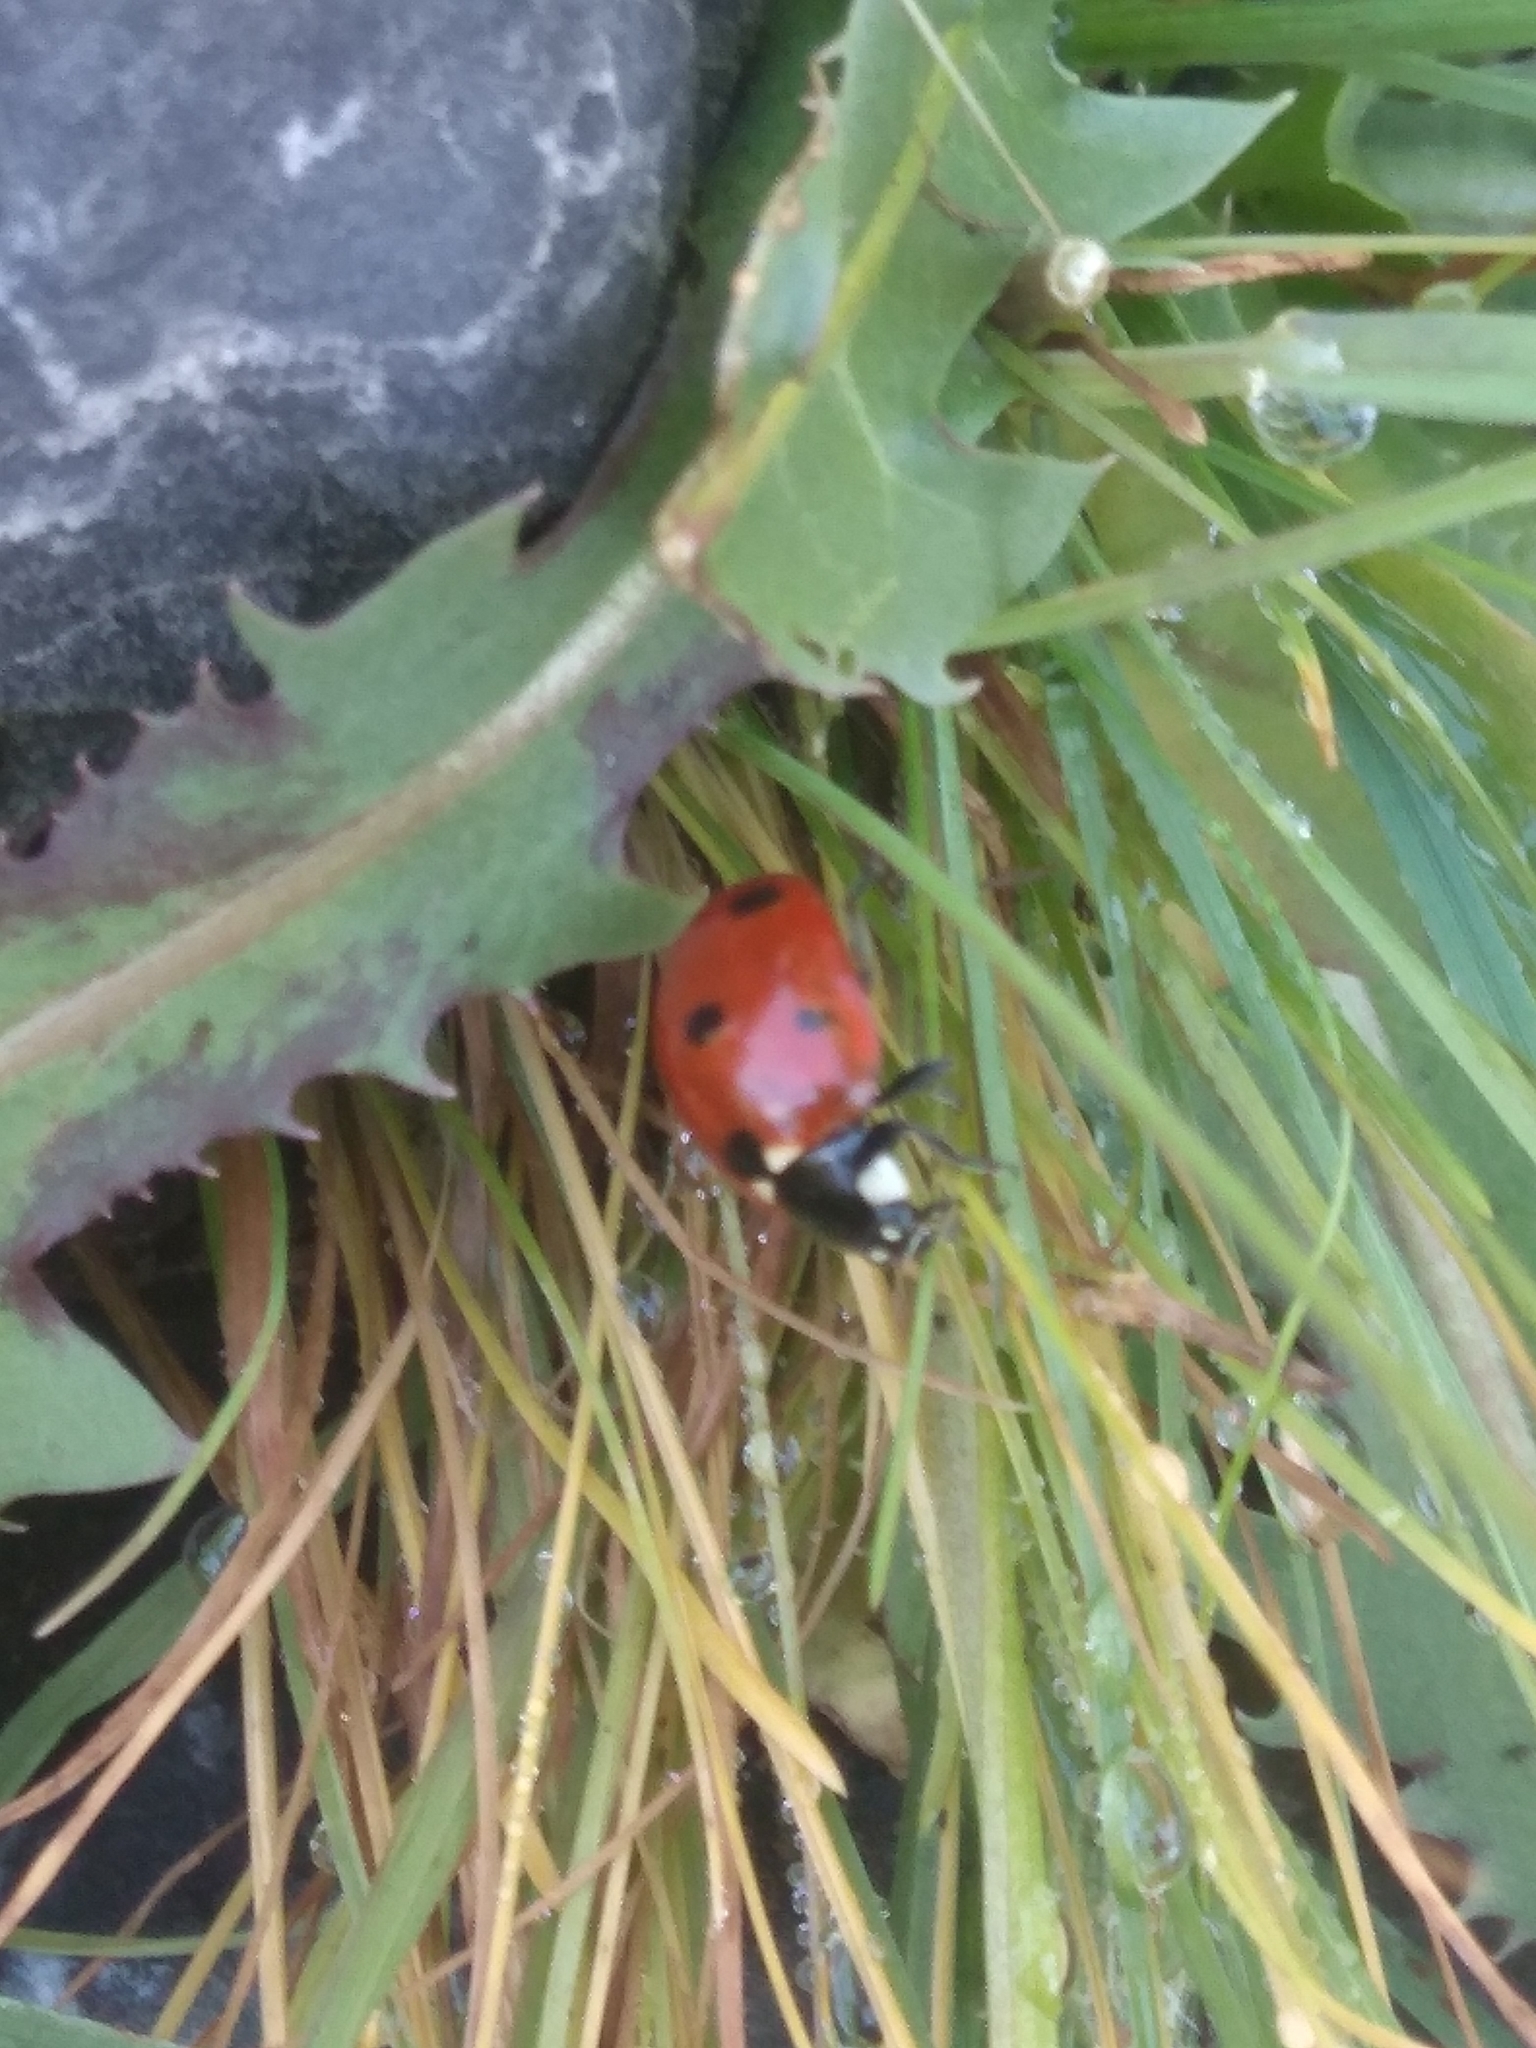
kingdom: Animalia
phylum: Arthropoda
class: Insecta
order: Coleoptera
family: Coccinellidae
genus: Coccinella
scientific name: Coccinella septempunctata
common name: Sevenspotted lady beetle
